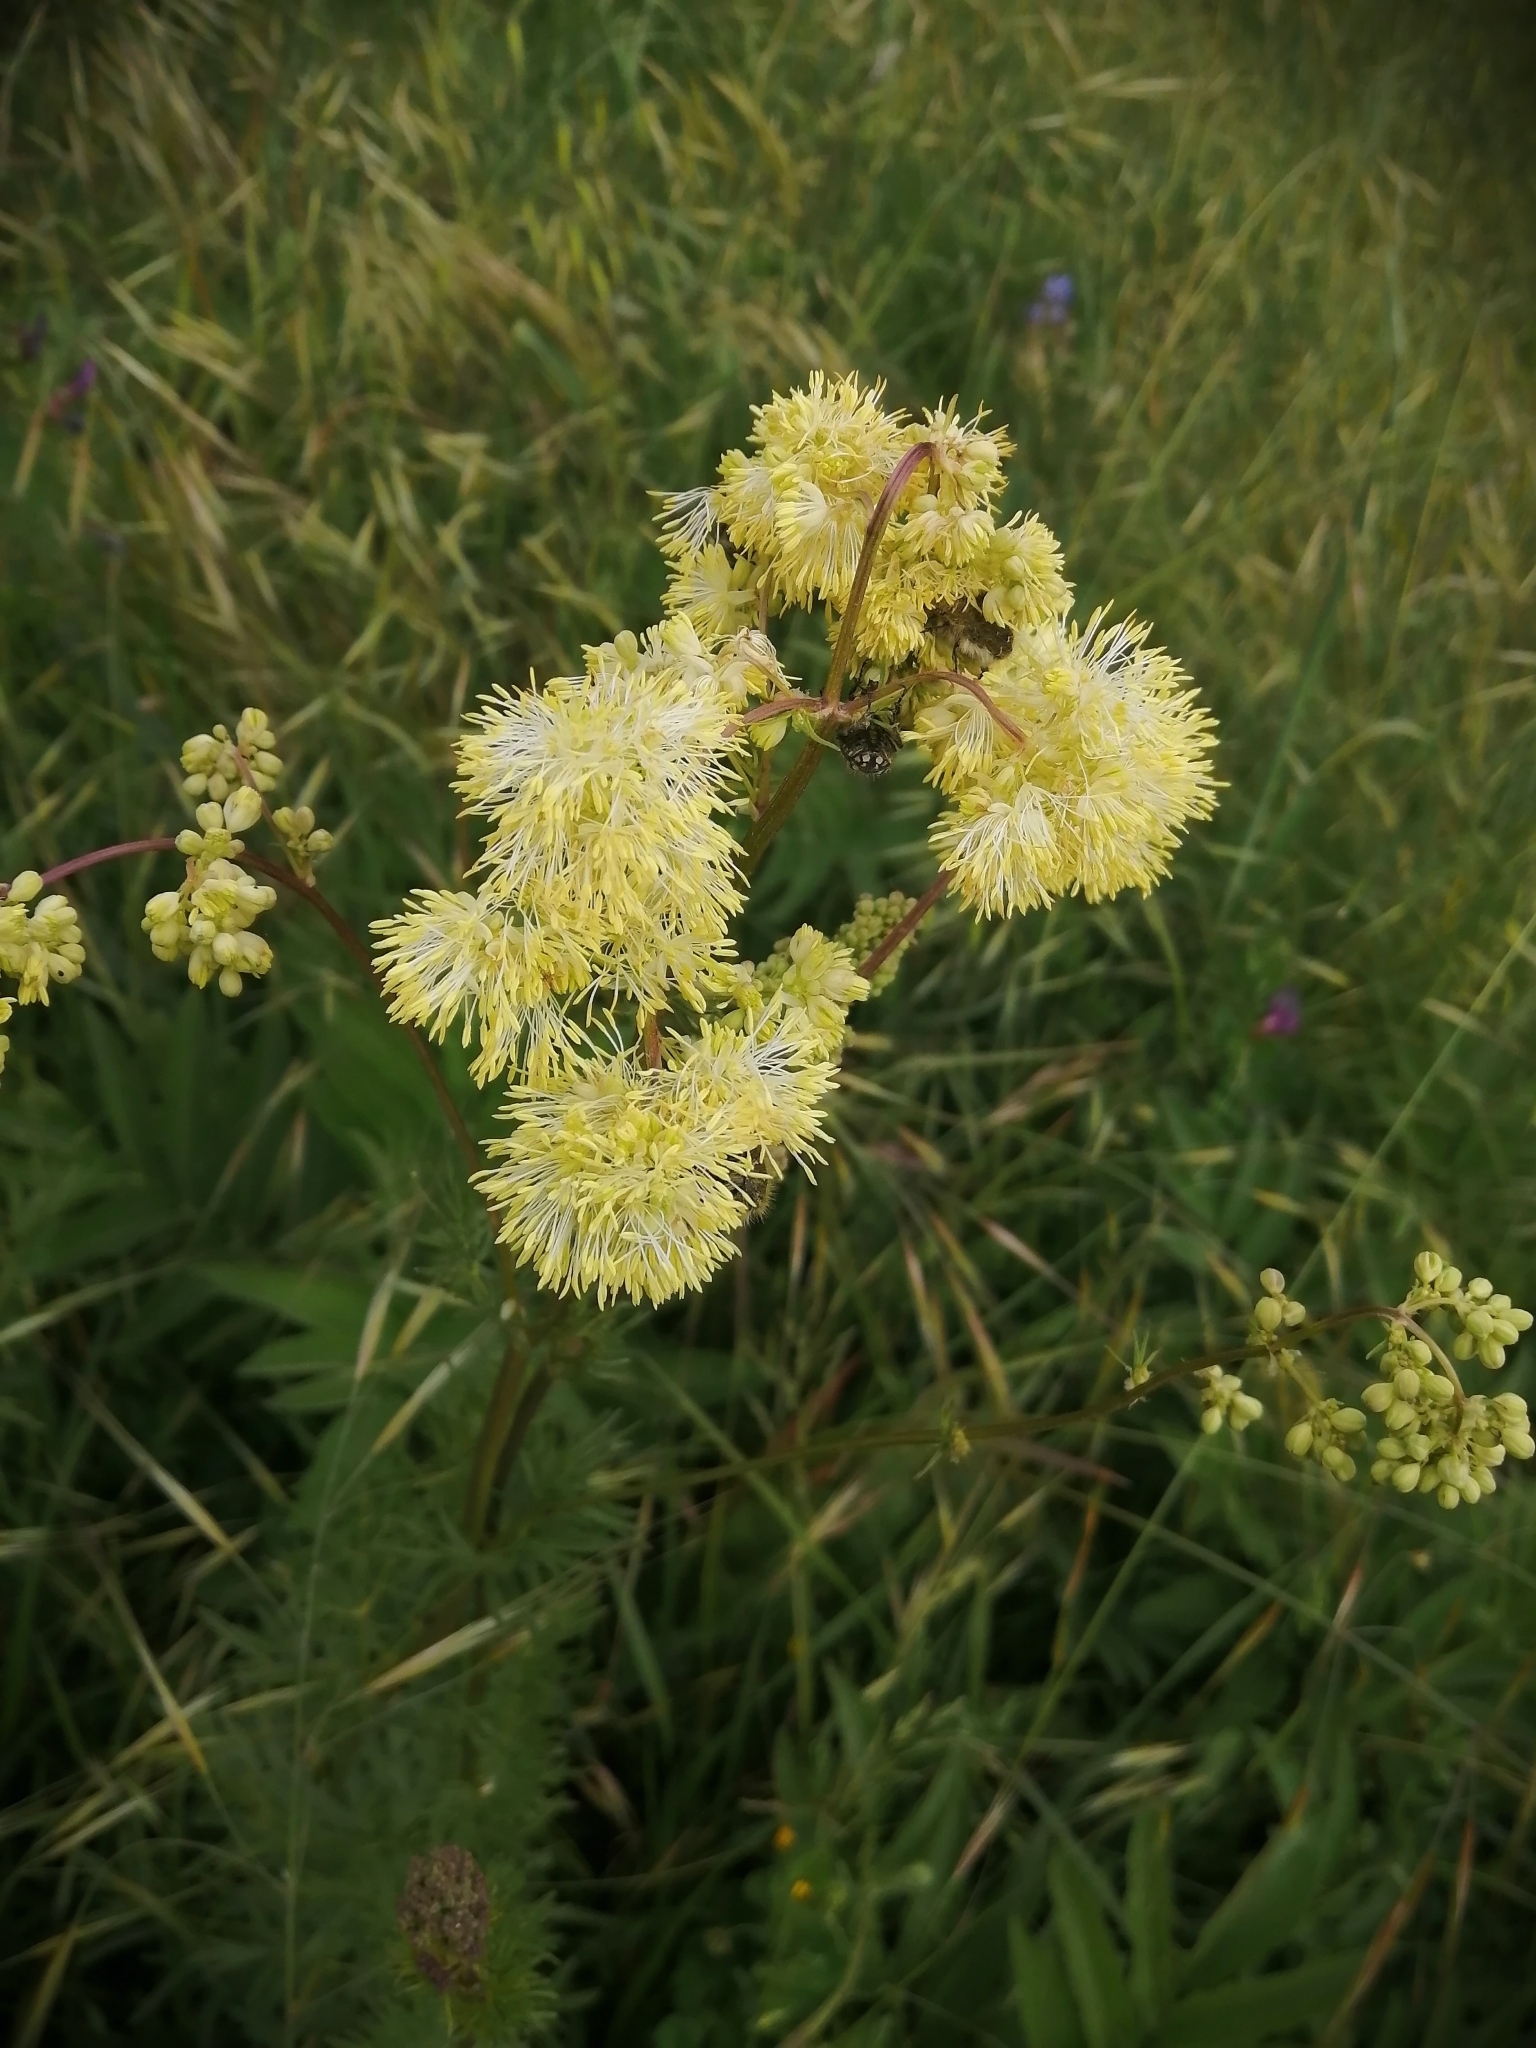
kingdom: Plantae
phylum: Tracheophyta
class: Magnoliopsida
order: Ranunculales
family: Ranunculaceae
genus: Thalictrum
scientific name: Thalictrum lucidum
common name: Shining meadow-rue
